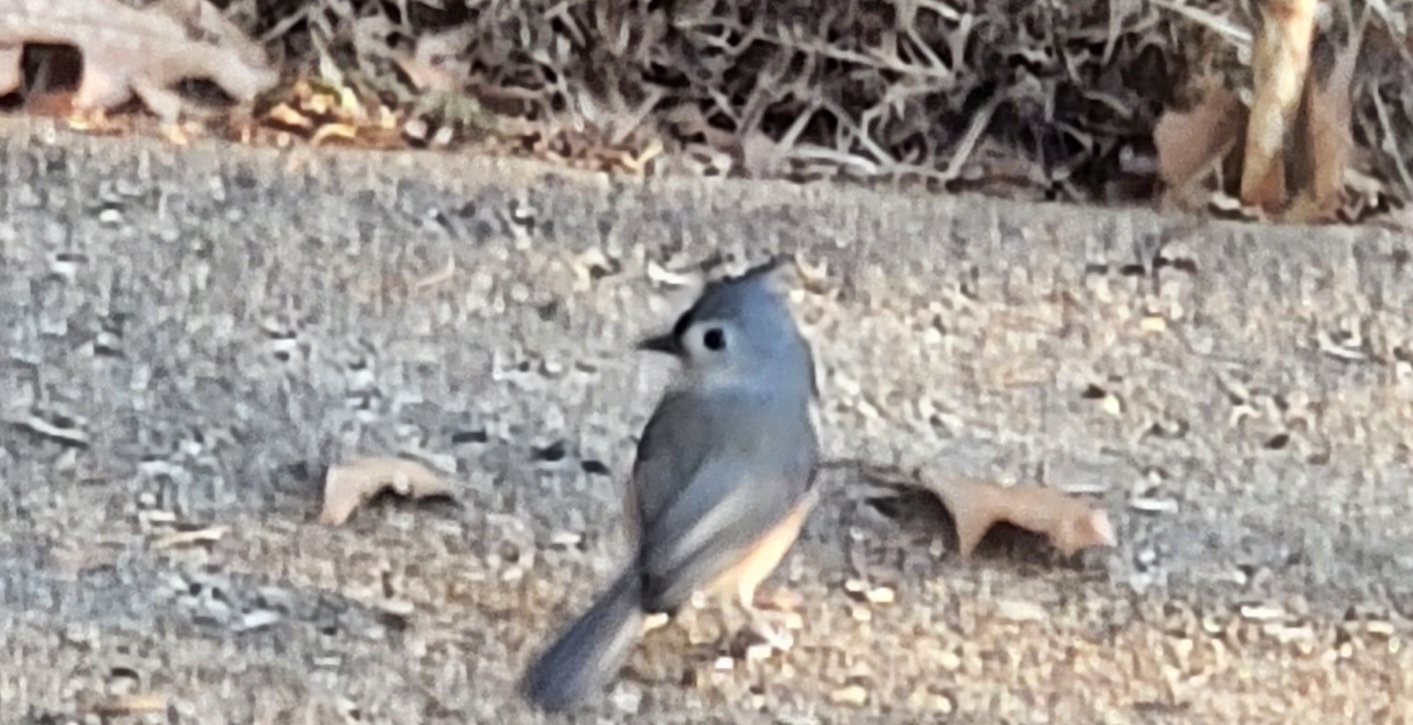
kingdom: Animalia
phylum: Chordata
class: Aves
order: Passeriformes
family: Paridae
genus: Baeolophus
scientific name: Baeolophus bicolor
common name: Tufted titmouse
